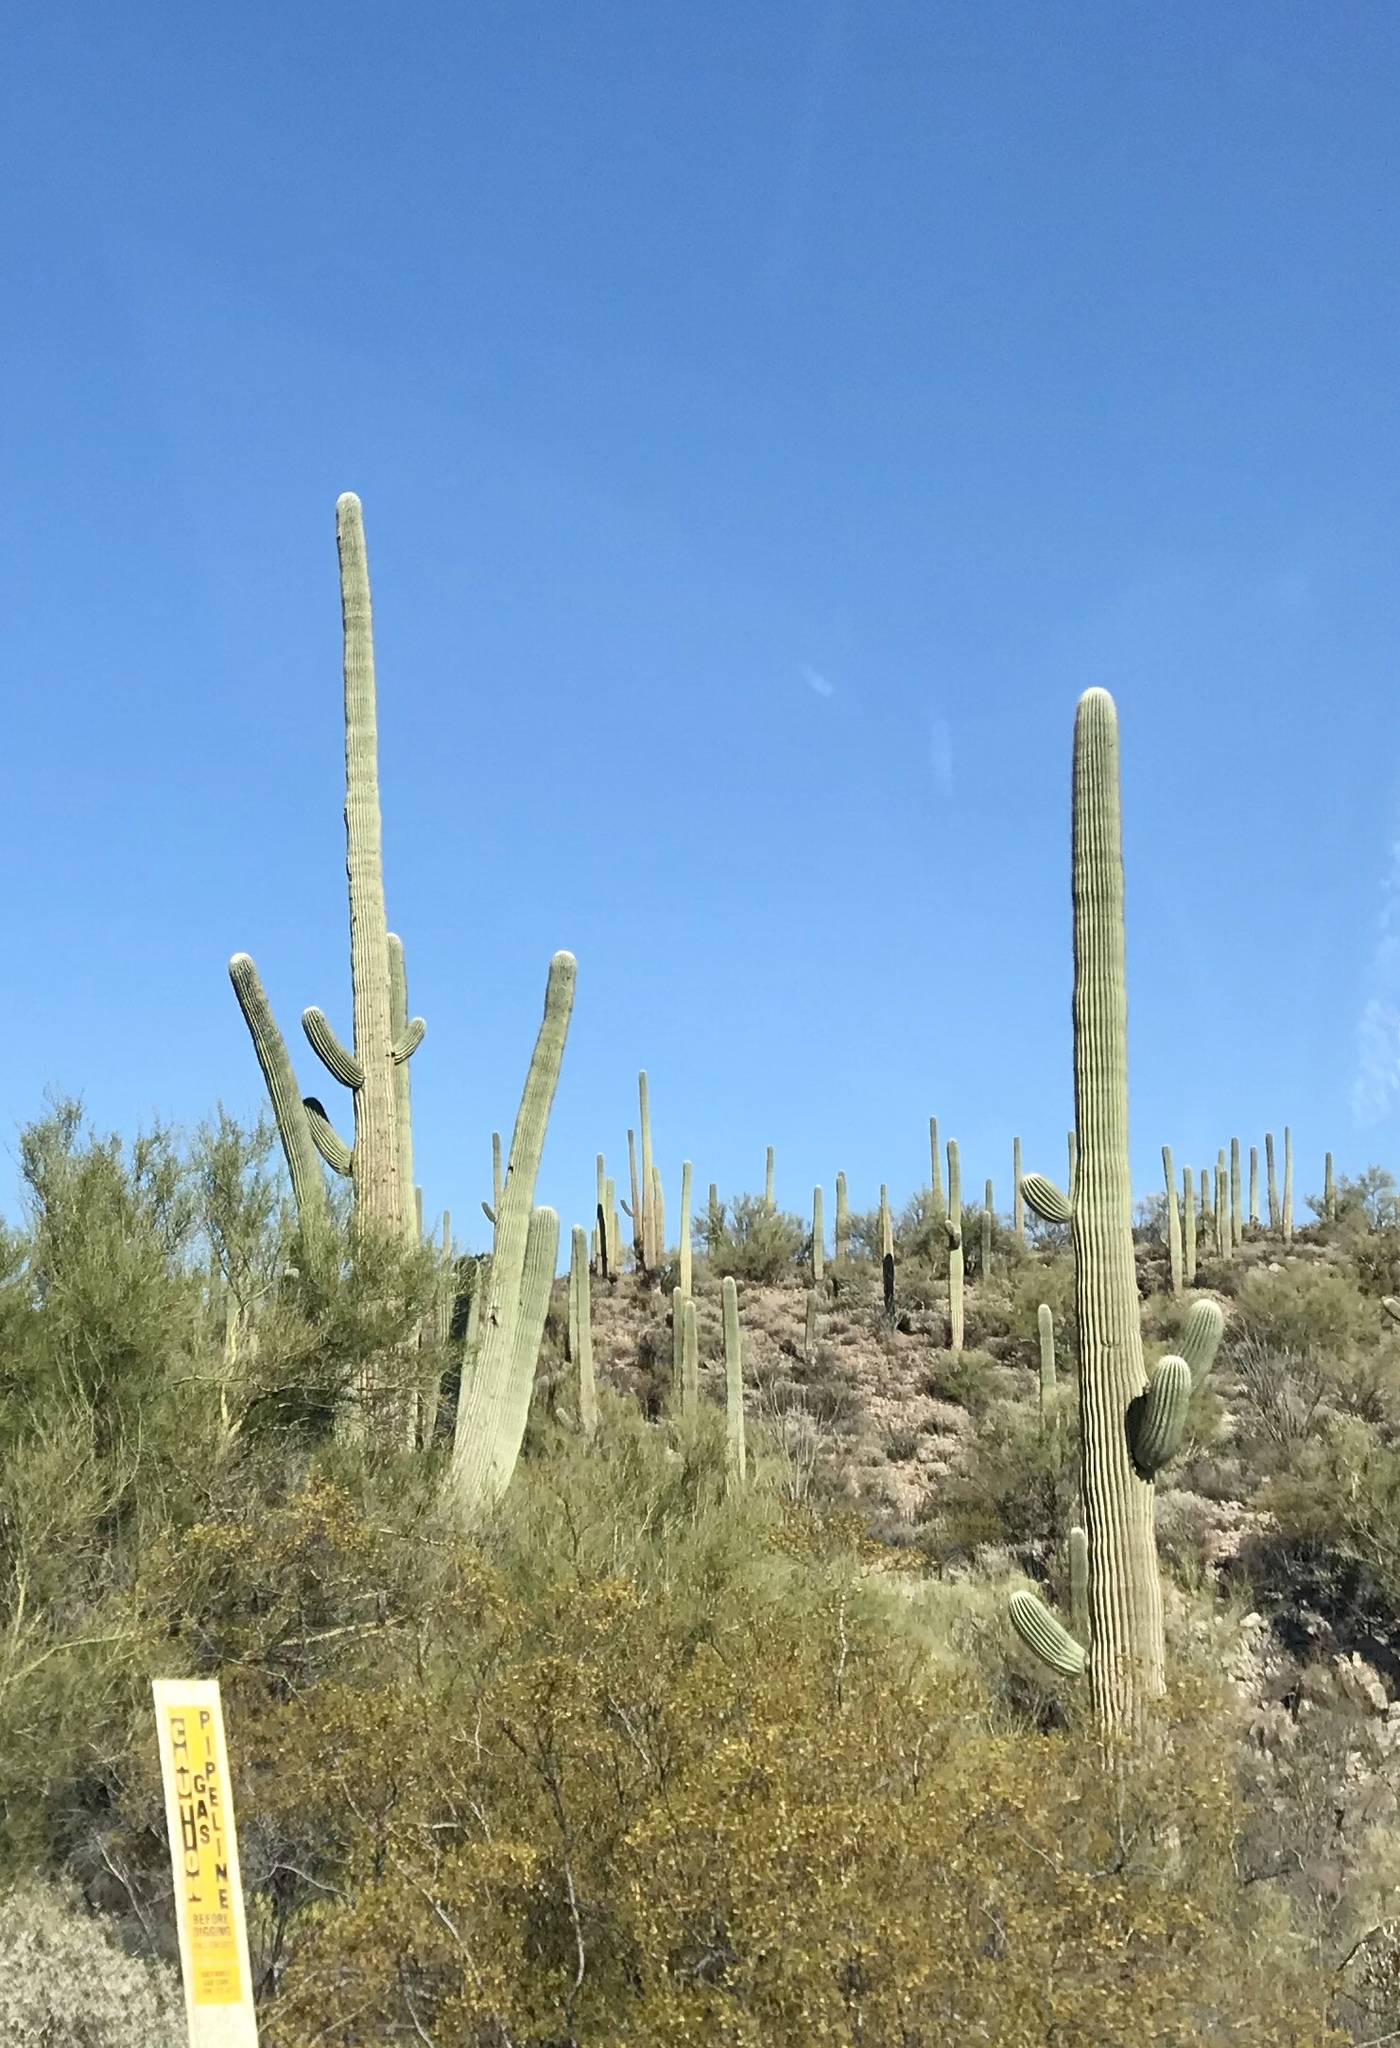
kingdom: Plantae
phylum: Tracheophyta
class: Magnoliopsida
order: Caryophyllales
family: Cactaceae
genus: Carnegiea
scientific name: Carnegiea gigantea
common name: Saguaro
